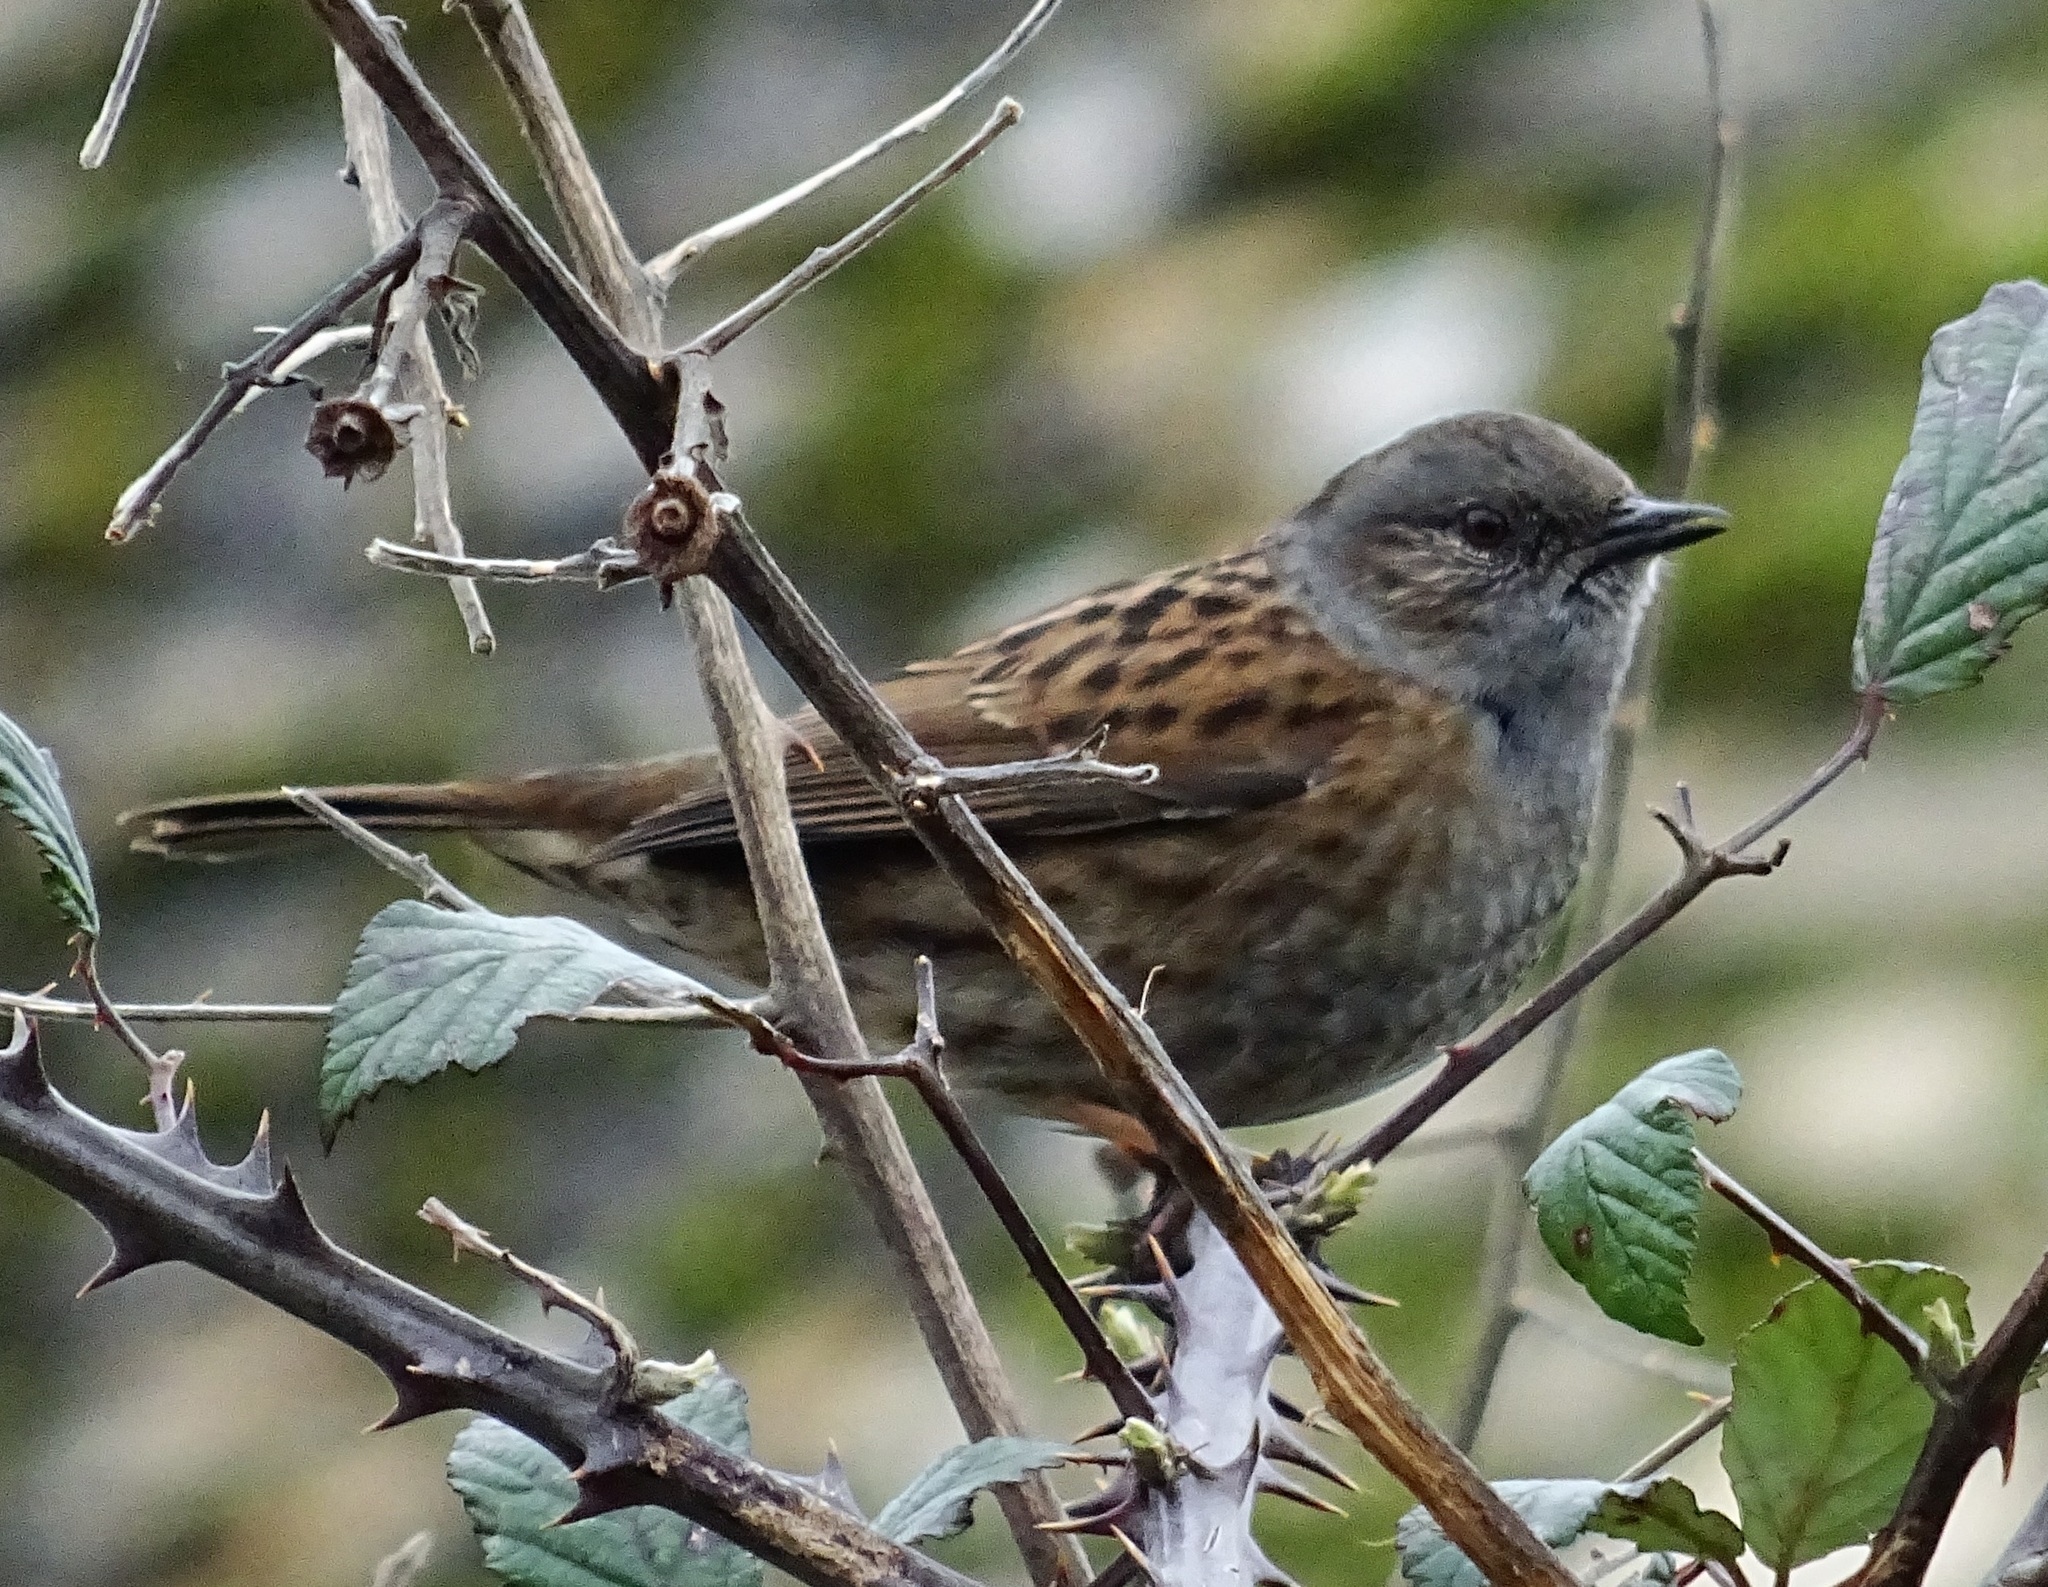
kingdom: Animalia
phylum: Chordata
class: Aves
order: Passeriformes
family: Prunellidae
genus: Prunella
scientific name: Prunella modularis
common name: Dunnock
